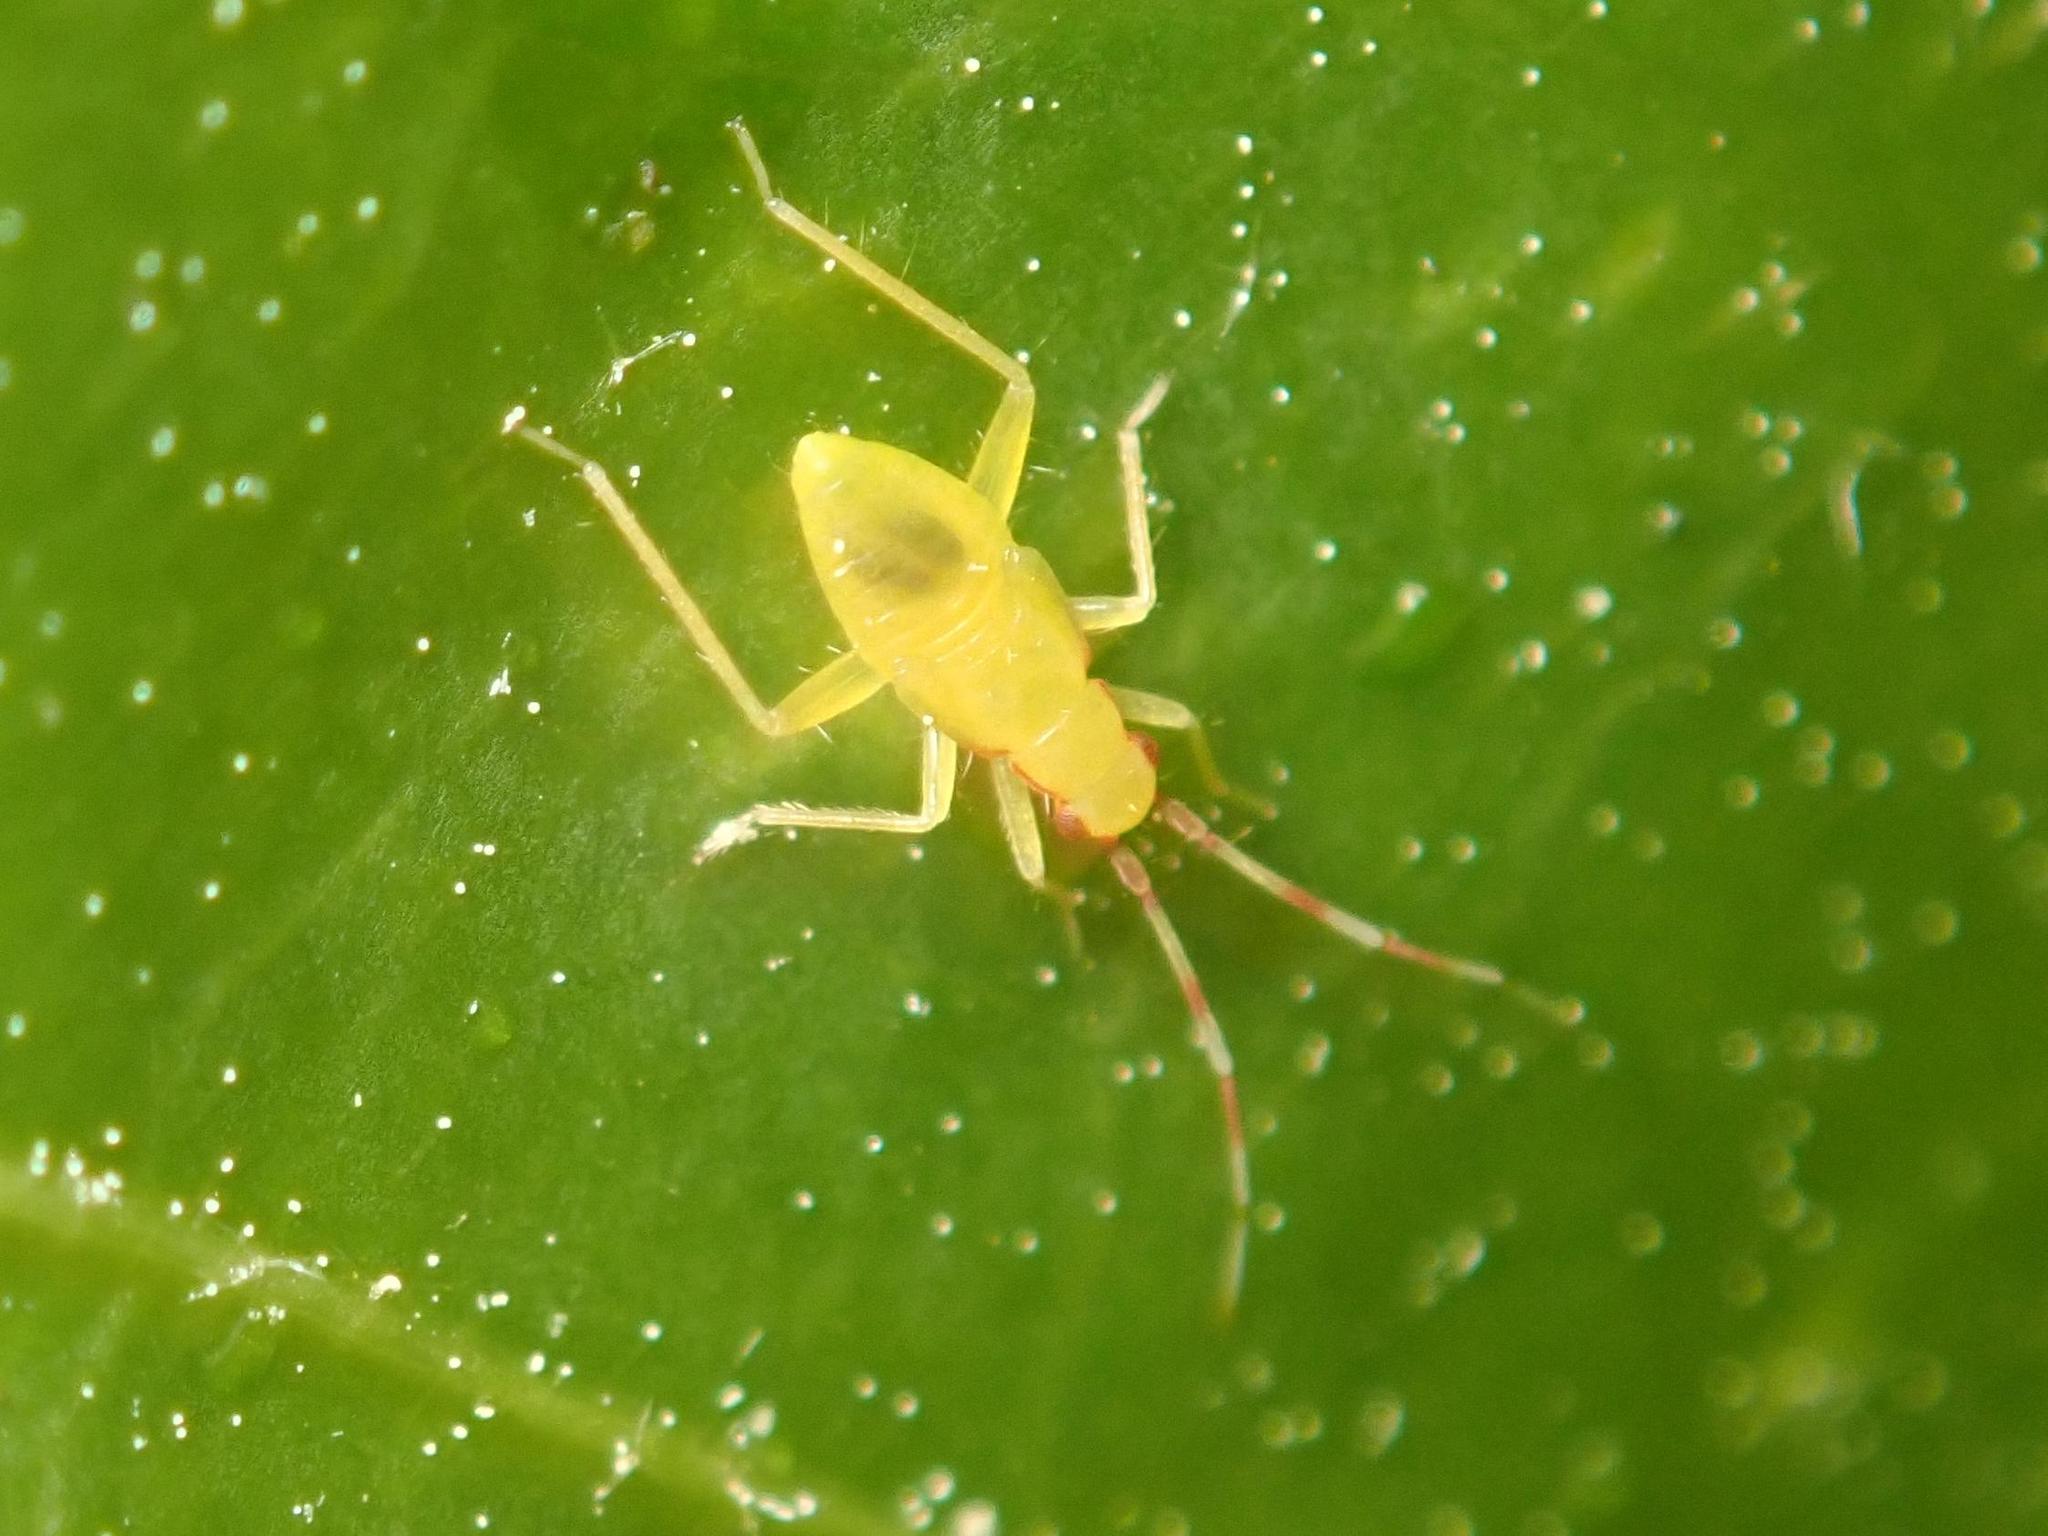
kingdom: Animalia
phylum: Arthropoda
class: Insecta
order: Hemiptera
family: Miridae
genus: Campyloneura
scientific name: Campyloneura virgula
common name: Predatory bug
